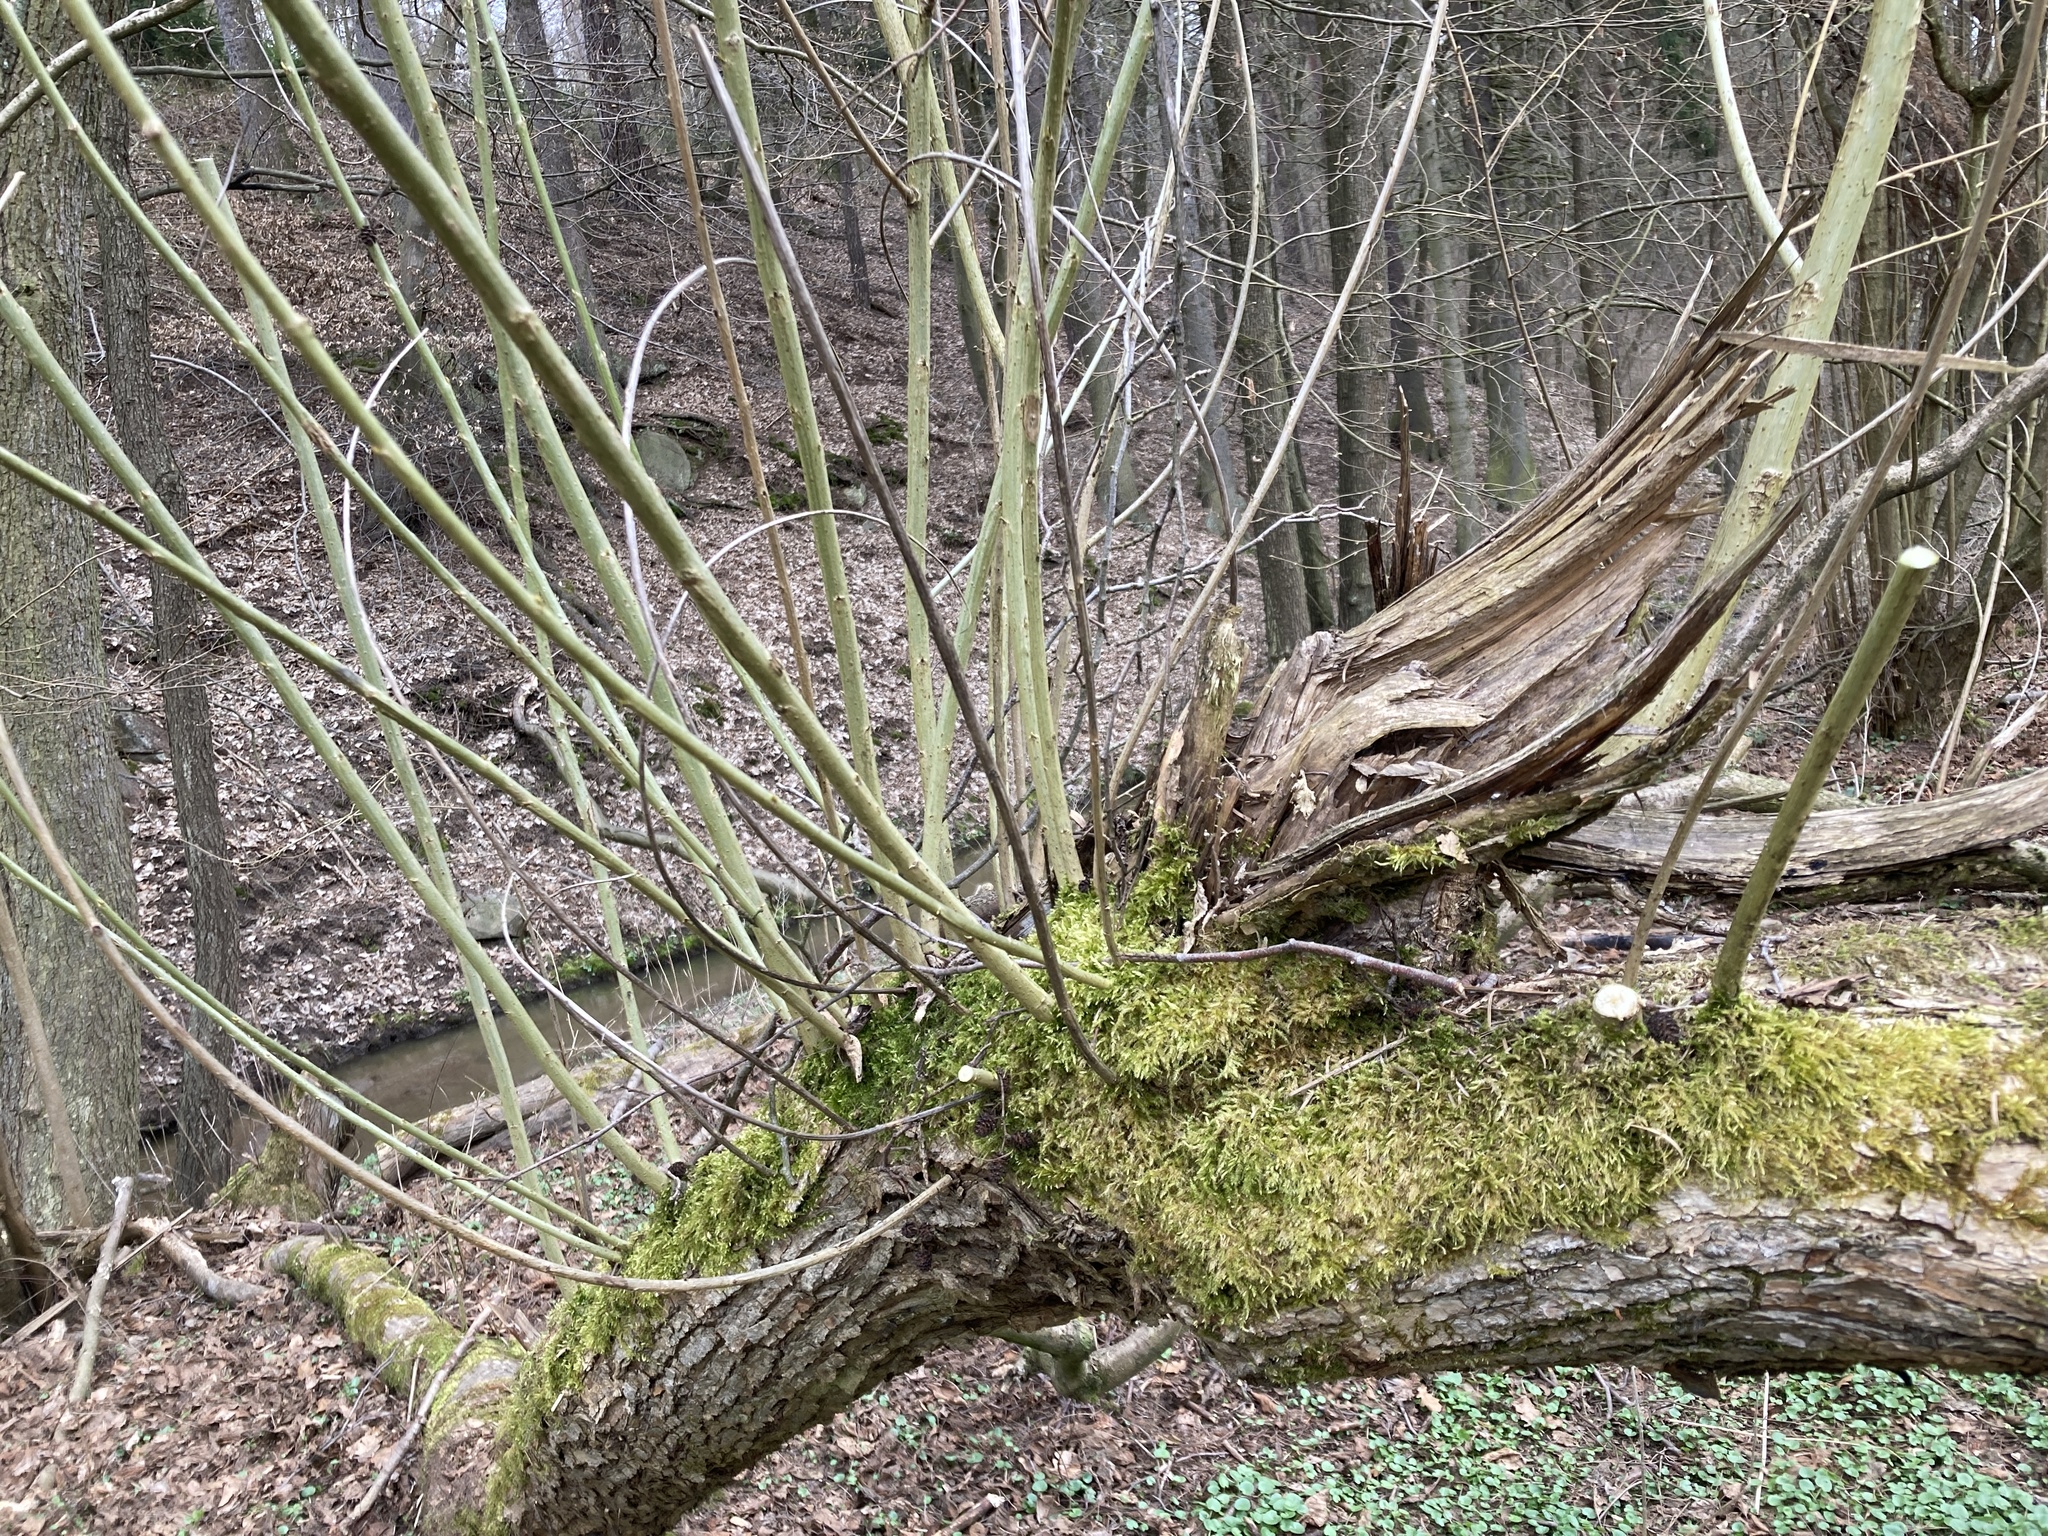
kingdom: Plantae
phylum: Tracheophyta
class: Magnoliopsida
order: Malpighiales
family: Salicaceae
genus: Salix
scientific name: Salix caprea
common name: Goat willow
